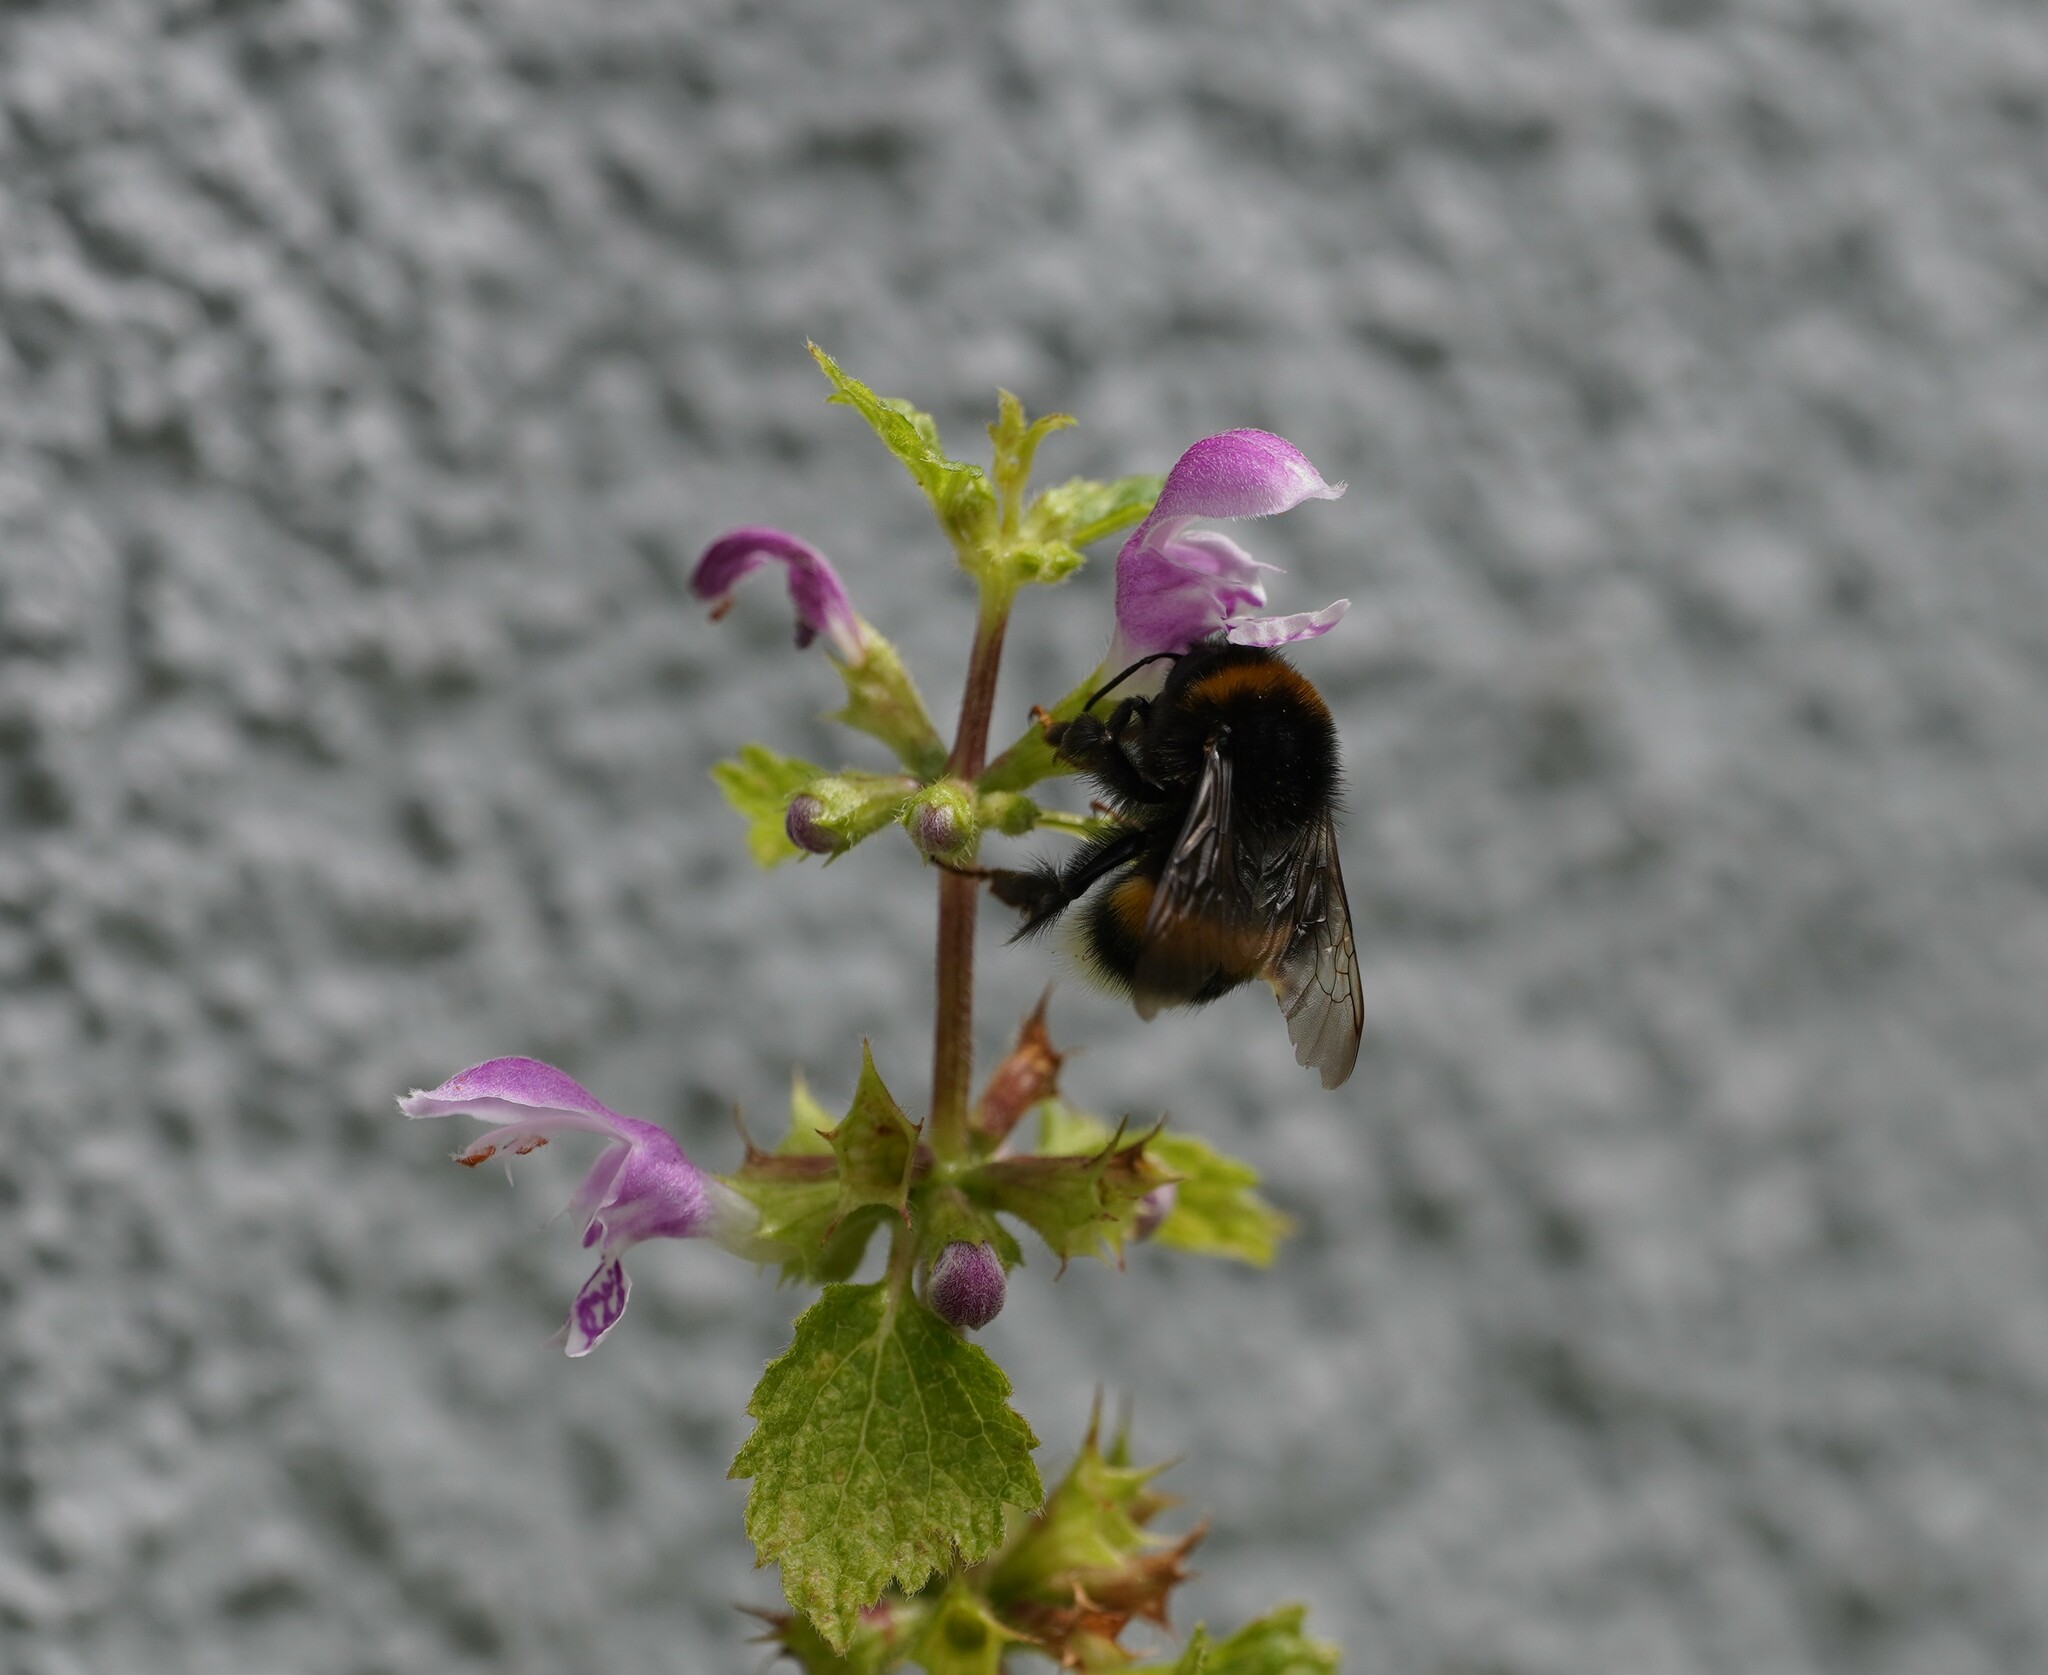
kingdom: Animalia
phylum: Arthropoda
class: Insecta
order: Hymenoptera
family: Apidae
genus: Bombus
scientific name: Bombus
